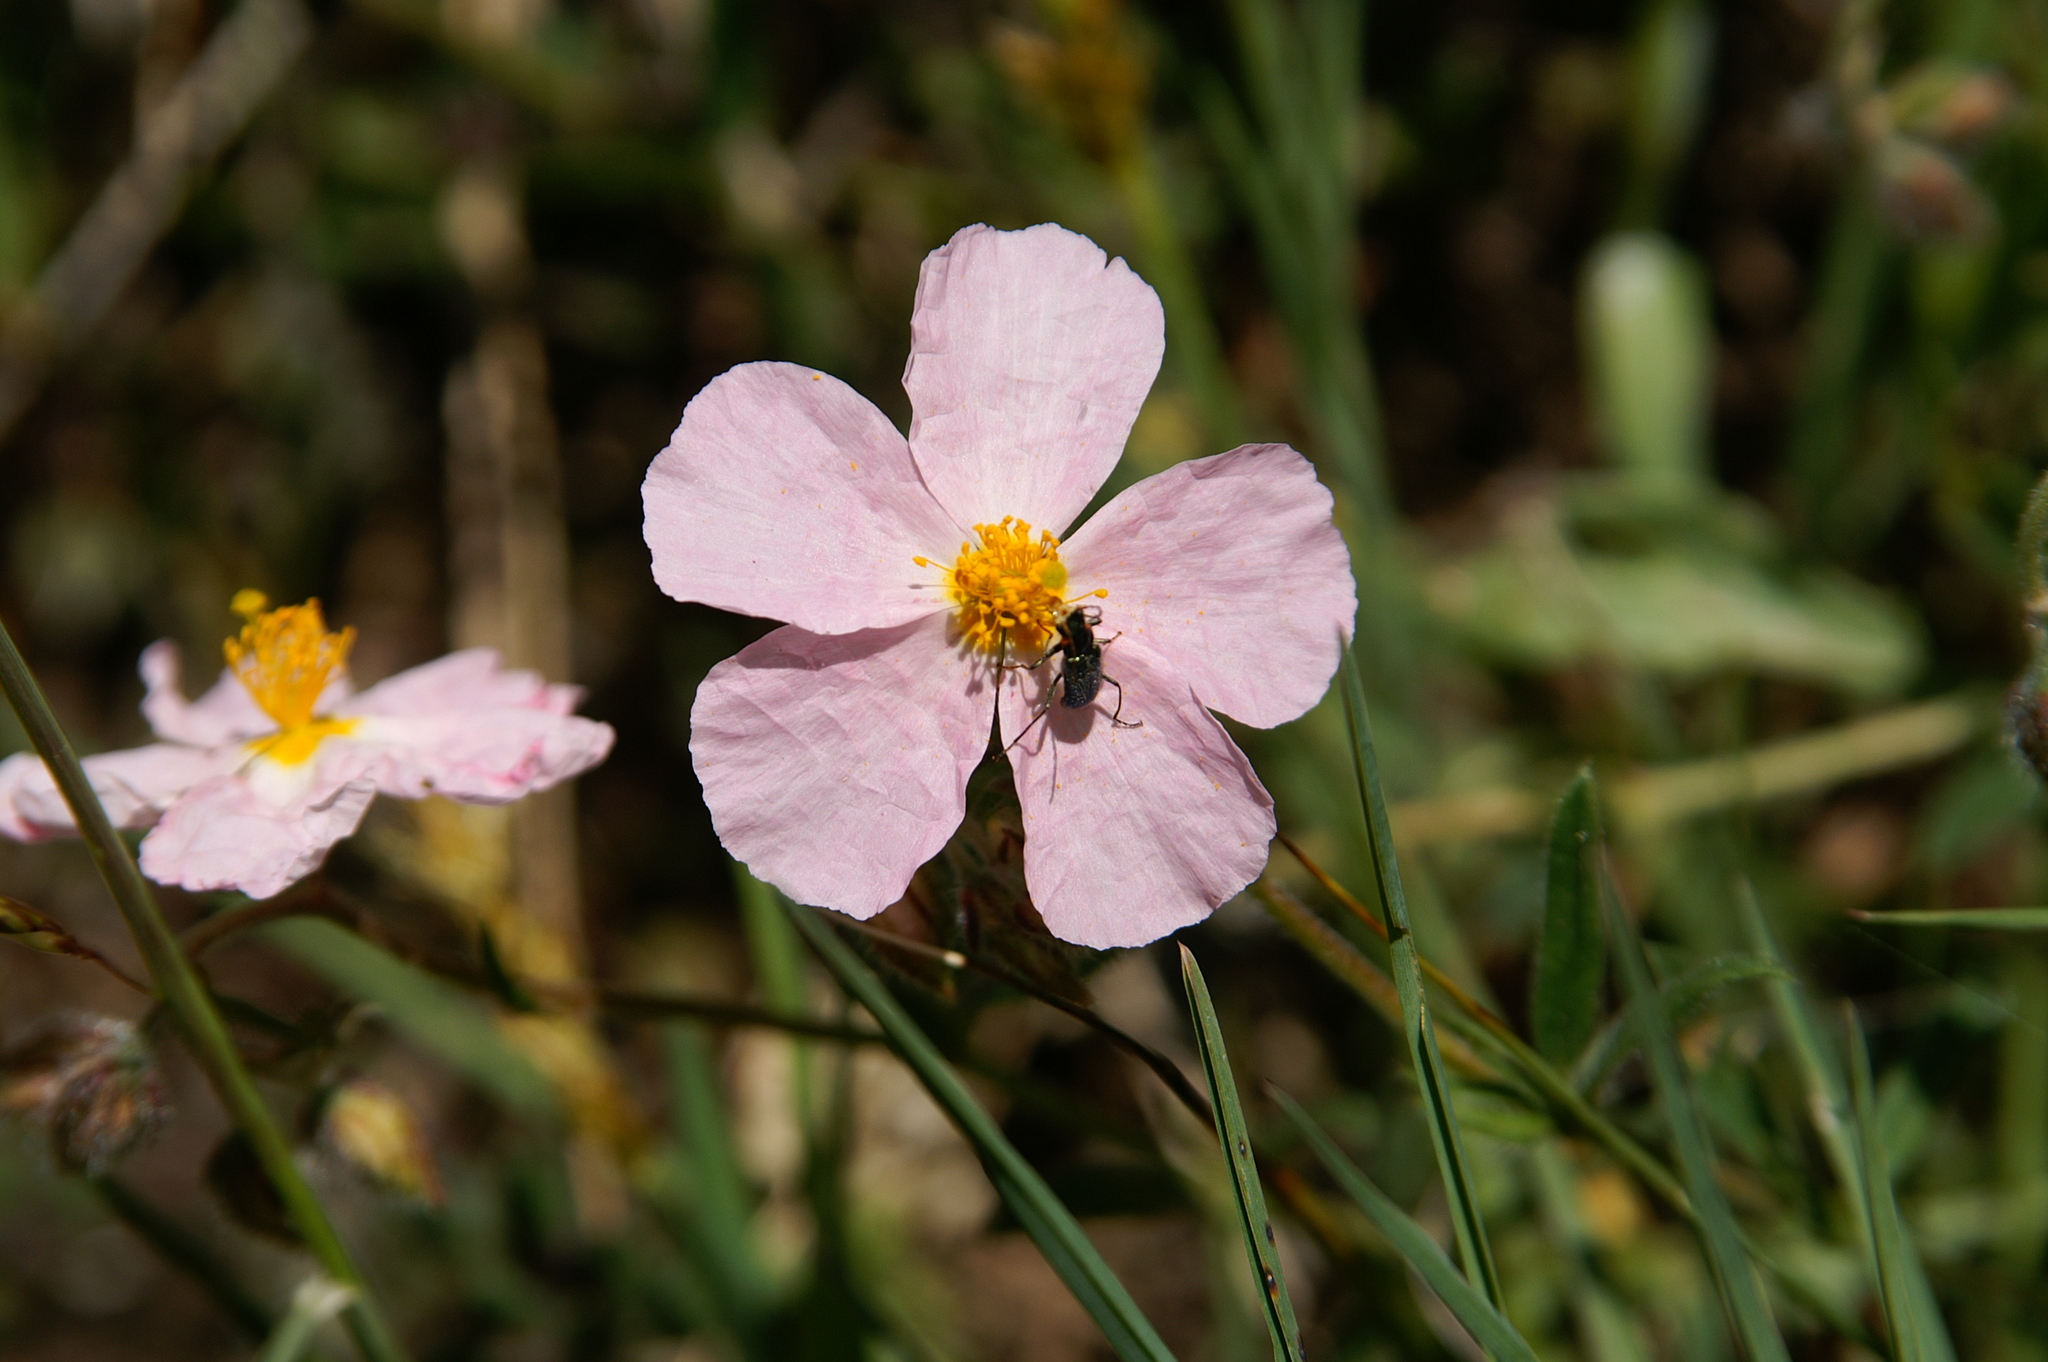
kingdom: Plantae
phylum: Tracheophyta
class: Magnoliopsida
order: Malvales
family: Cistaceae
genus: Helianthemum
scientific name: Helianthemum apenninum
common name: White rock-rose
